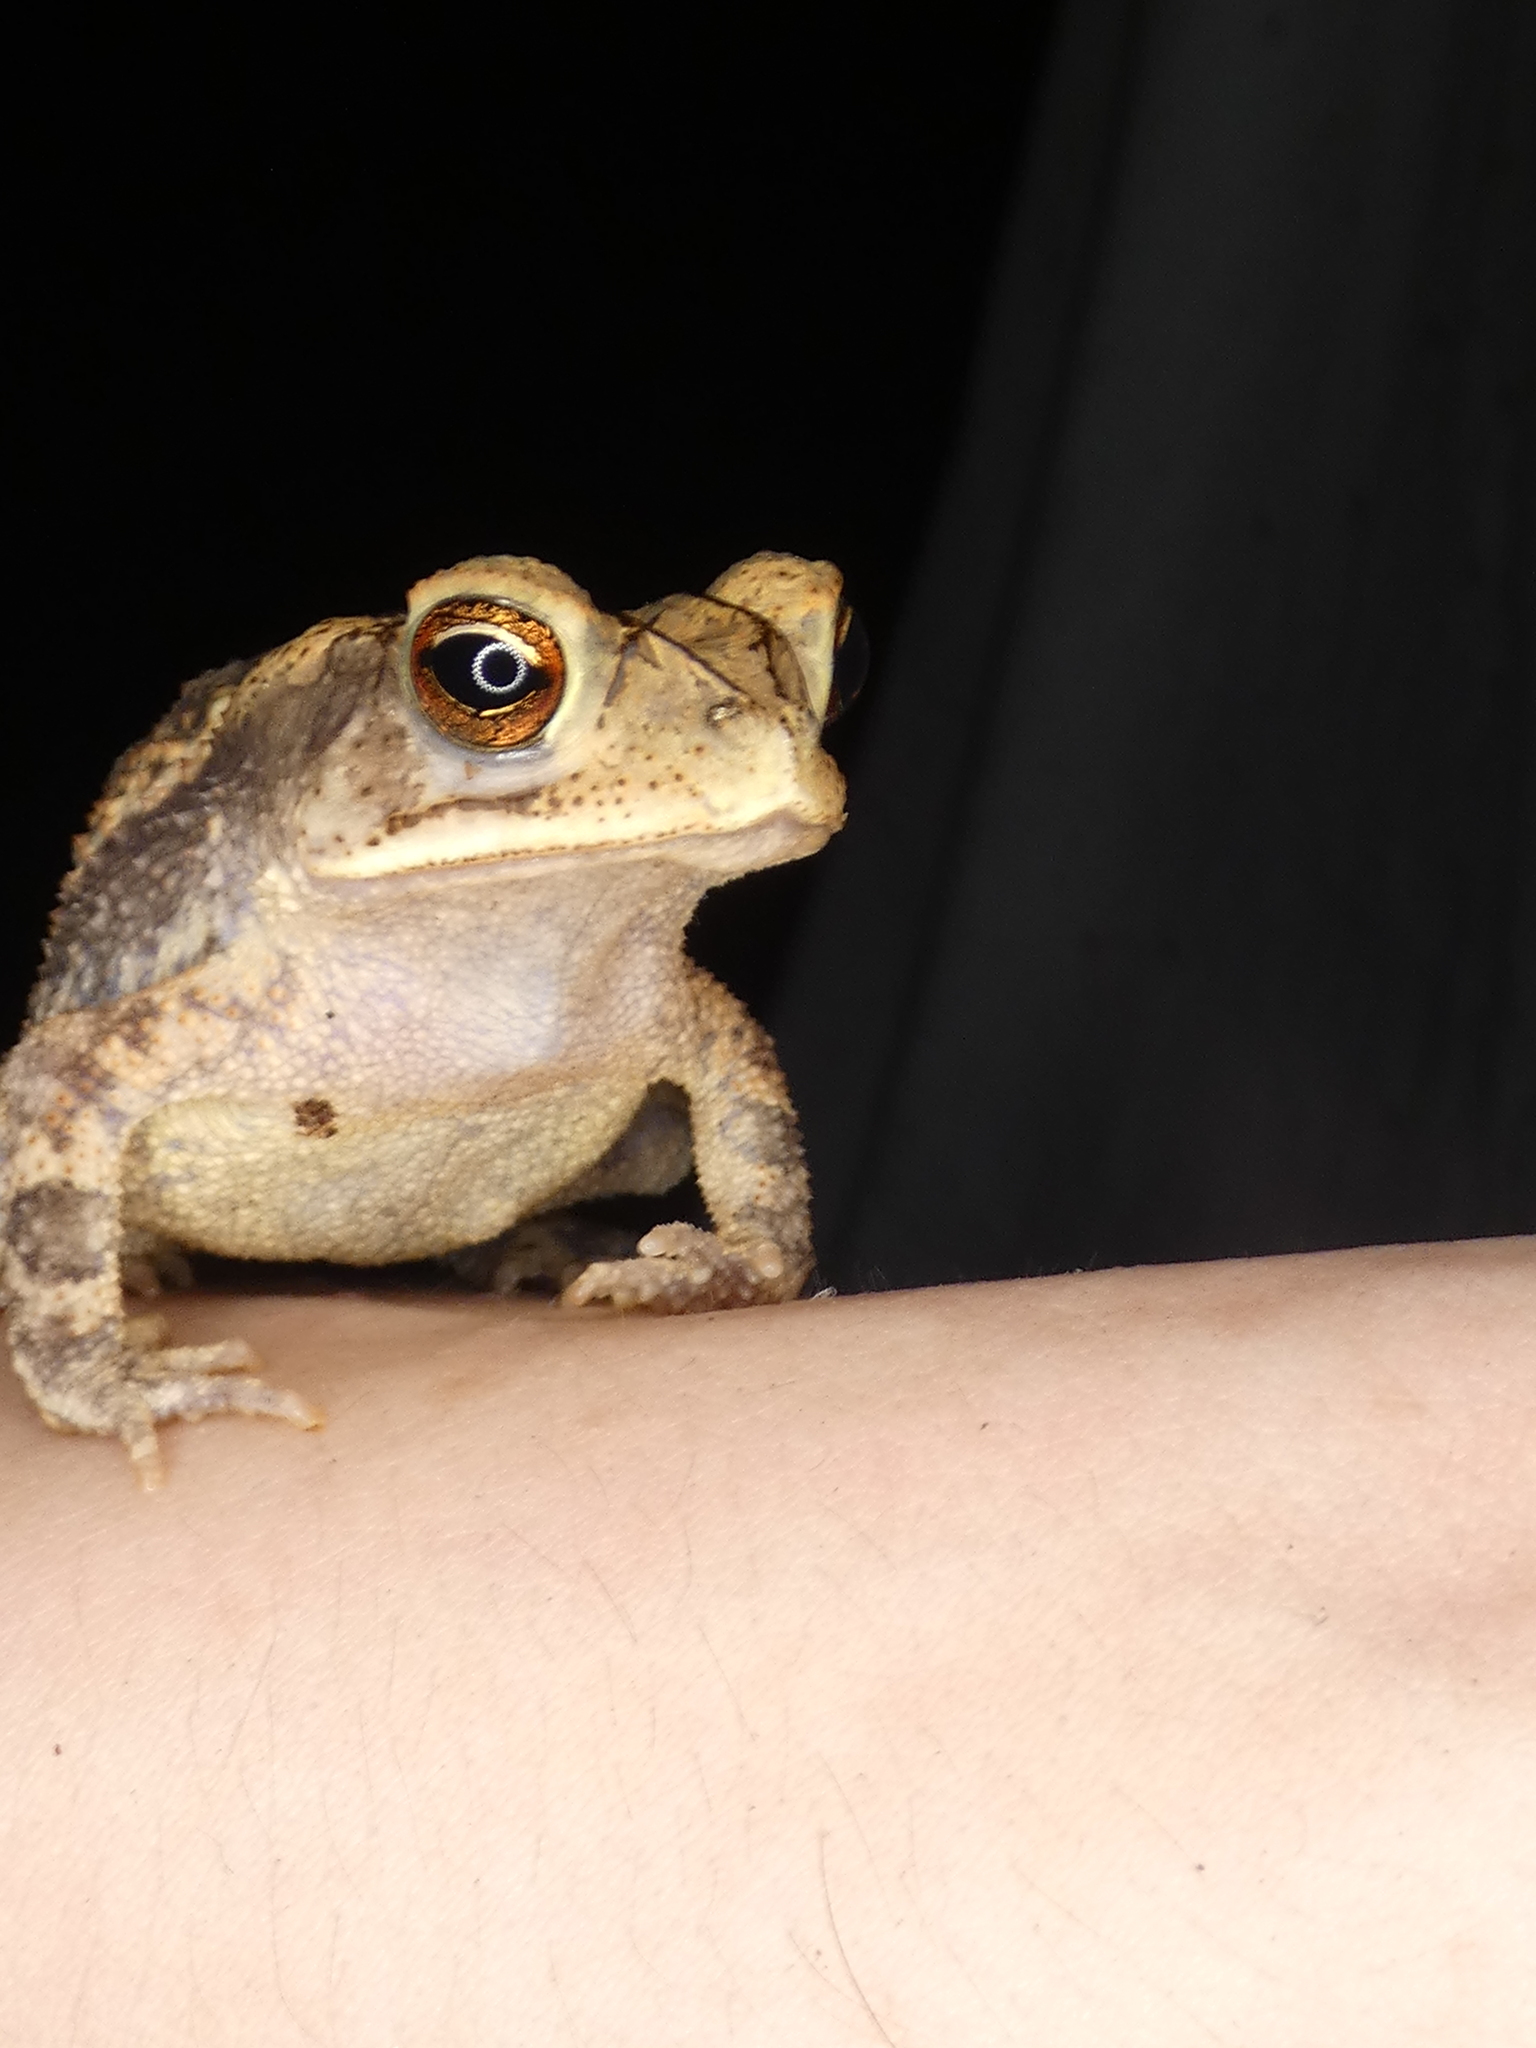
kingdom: Animalia
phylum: Chordata
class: Amphibia
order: Anura
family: Bufonidae
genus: Incilius
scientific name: Incilius nebulifer
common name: Gulf coast toad
